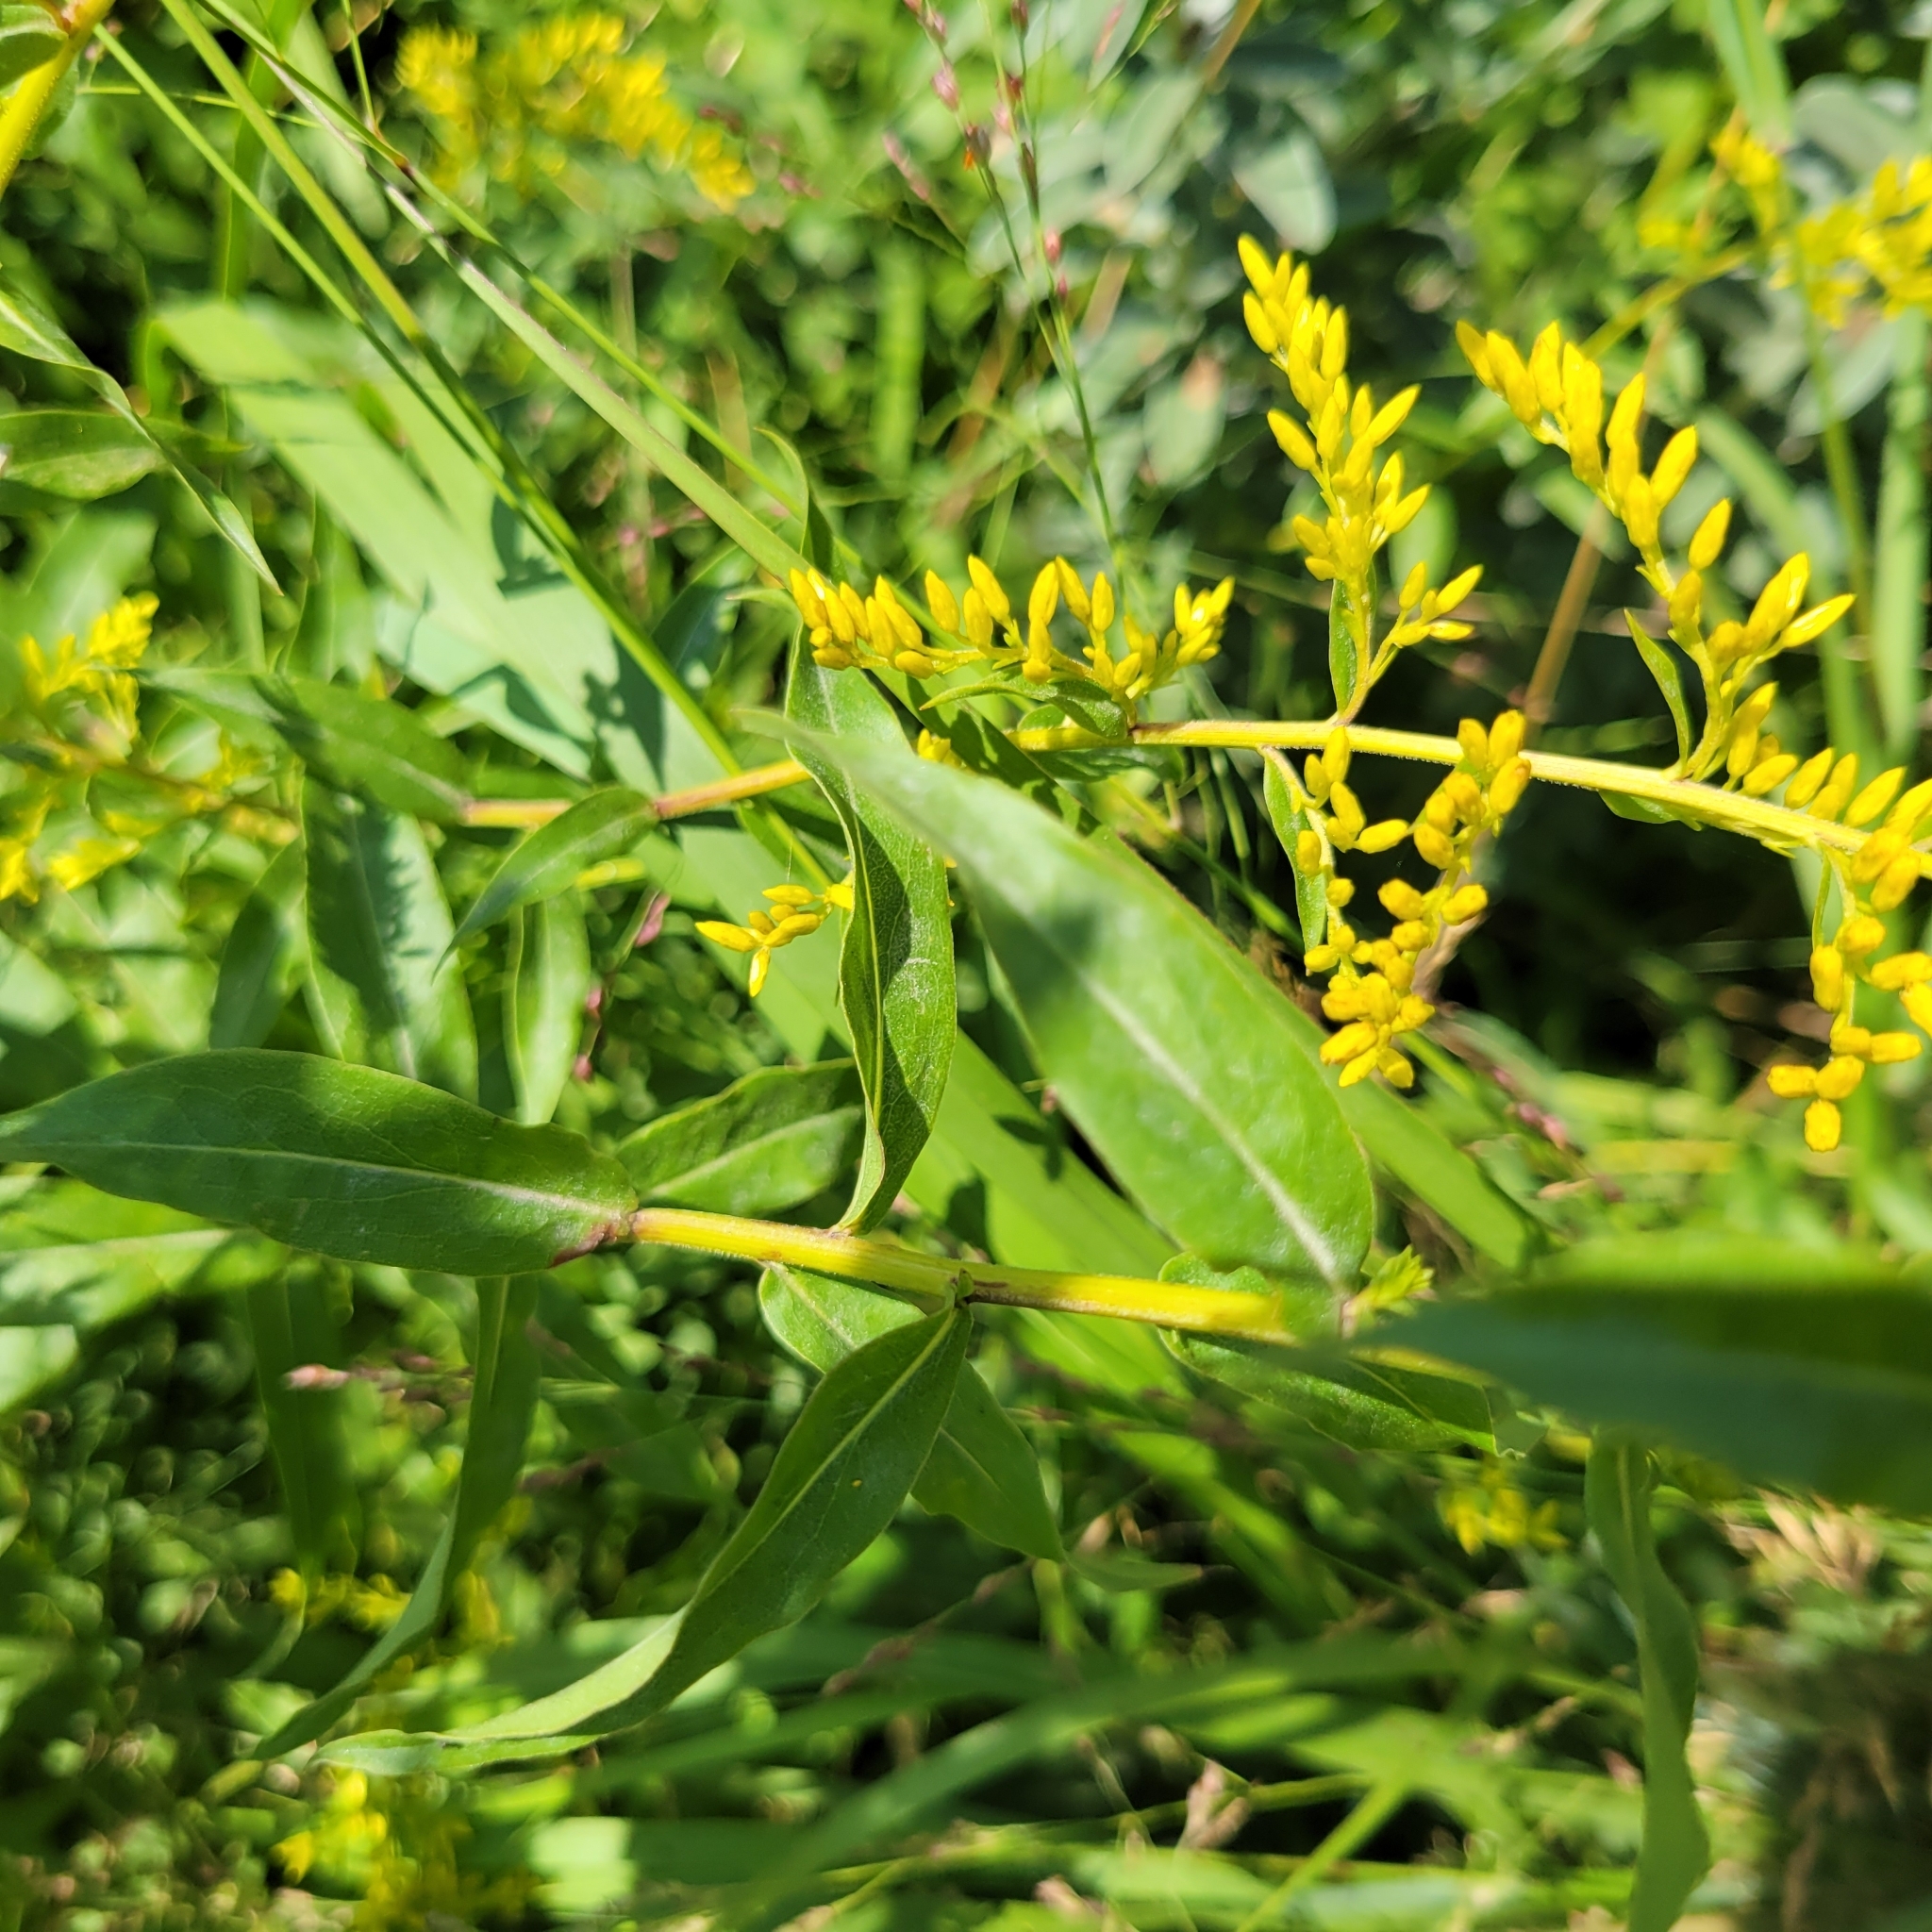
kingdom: Plantae
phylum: Tracheophyta
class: Magnoliopsida
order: Asterales
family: Asteraceae
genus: Solidago
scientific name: Solidago odora
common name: Anise-scented goldenrod
